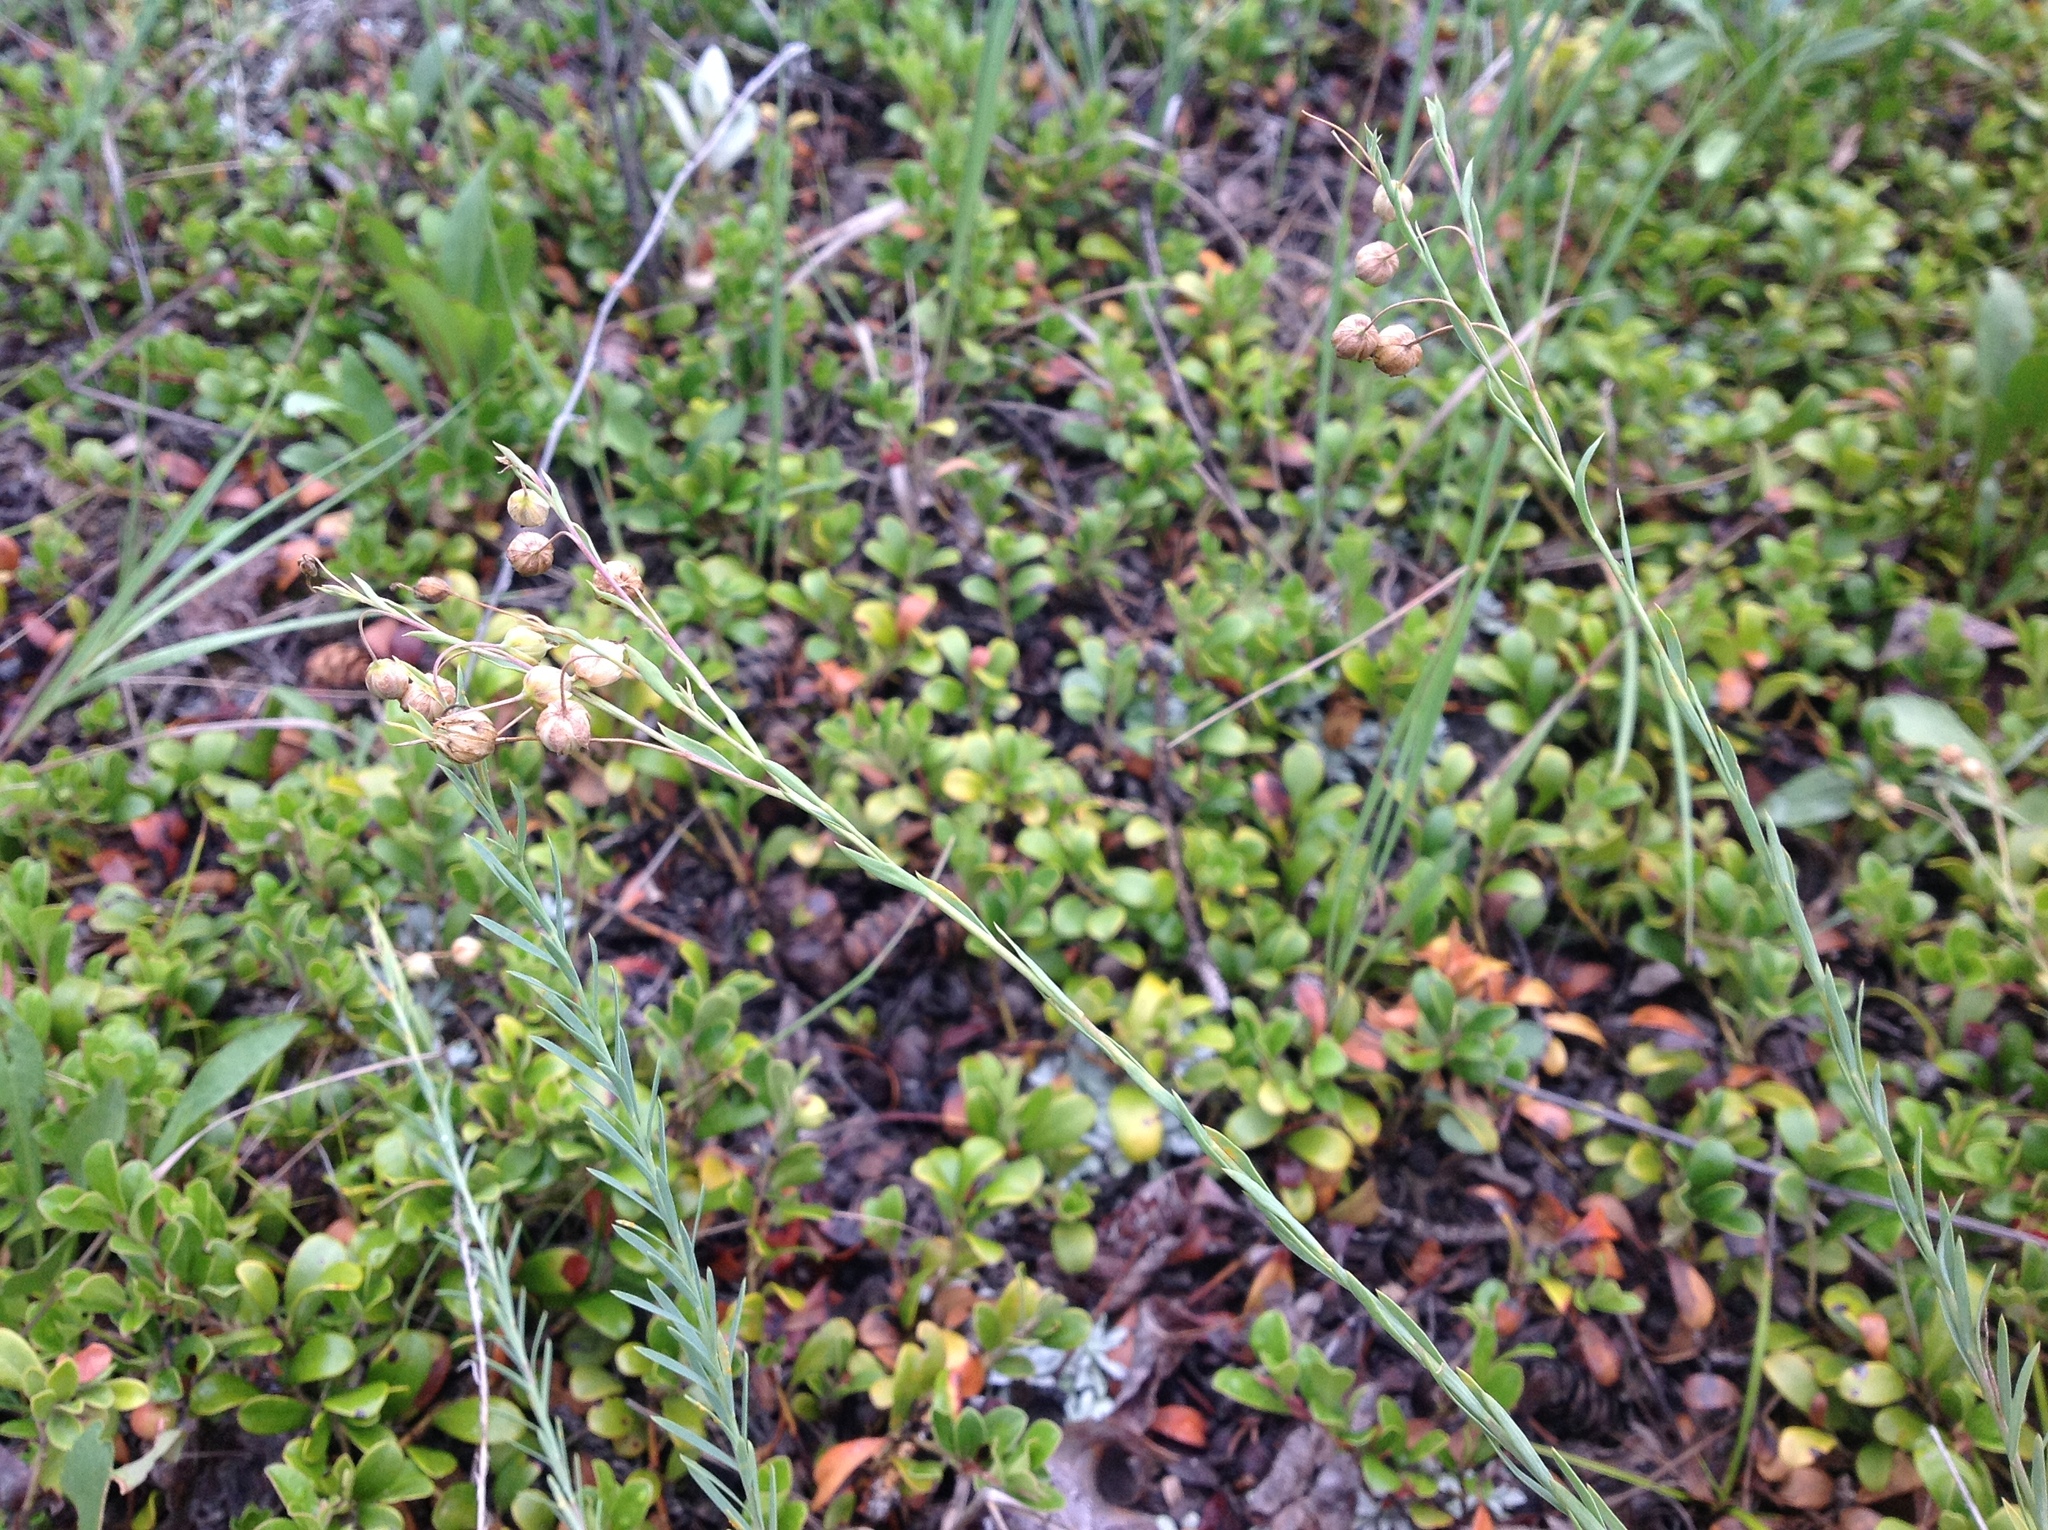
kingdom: Plantae
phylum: Tracheophyta
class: Magnoliopsida
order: Malpighiales
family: Linaceae
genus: Linum
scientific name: Linum lewisii
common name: Prairie flax
